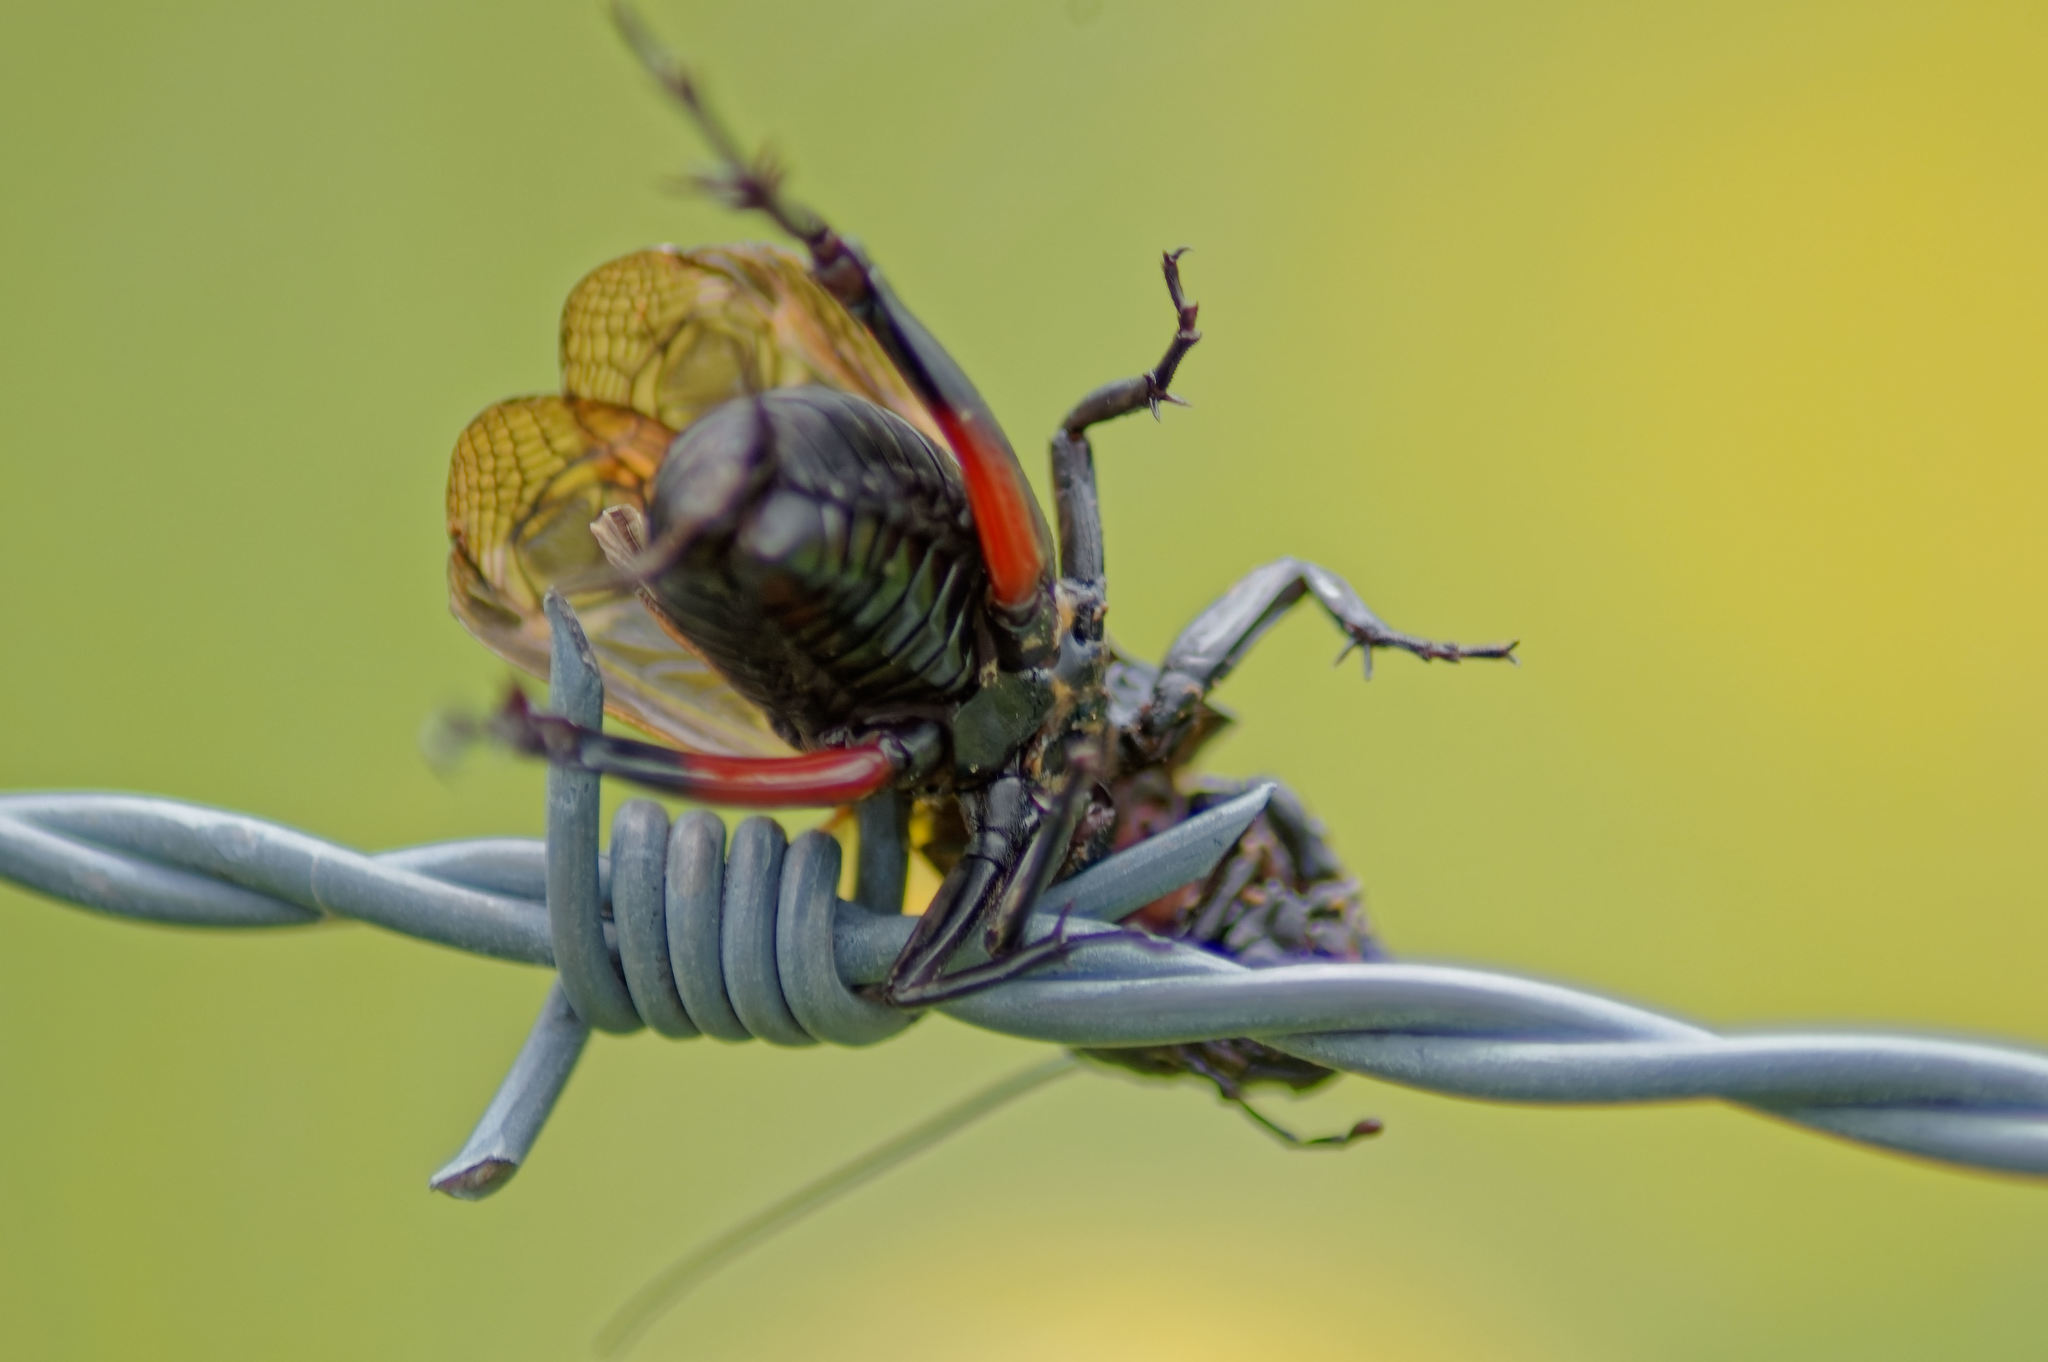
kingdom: Animalia
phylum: Arthropoda
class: Insecta
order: Orthoptera
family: Gryllidae
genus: Gryllus
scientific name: Gryllus campestris
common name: Field cricket
